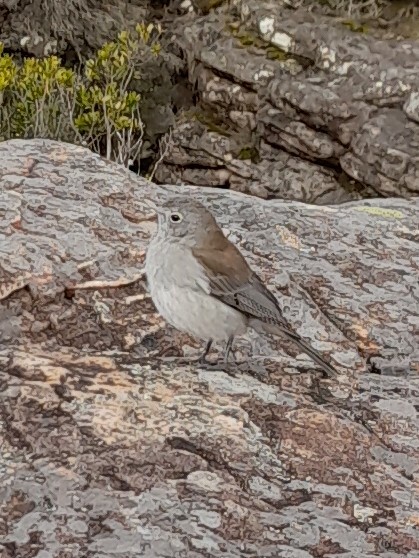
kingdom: Animalia
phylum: Chordata
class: Aves
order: Passeriformes
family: Pachycephalidae
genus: Colluricincla
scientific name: Colluricincla harmonica
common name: Grey shrikethrush
